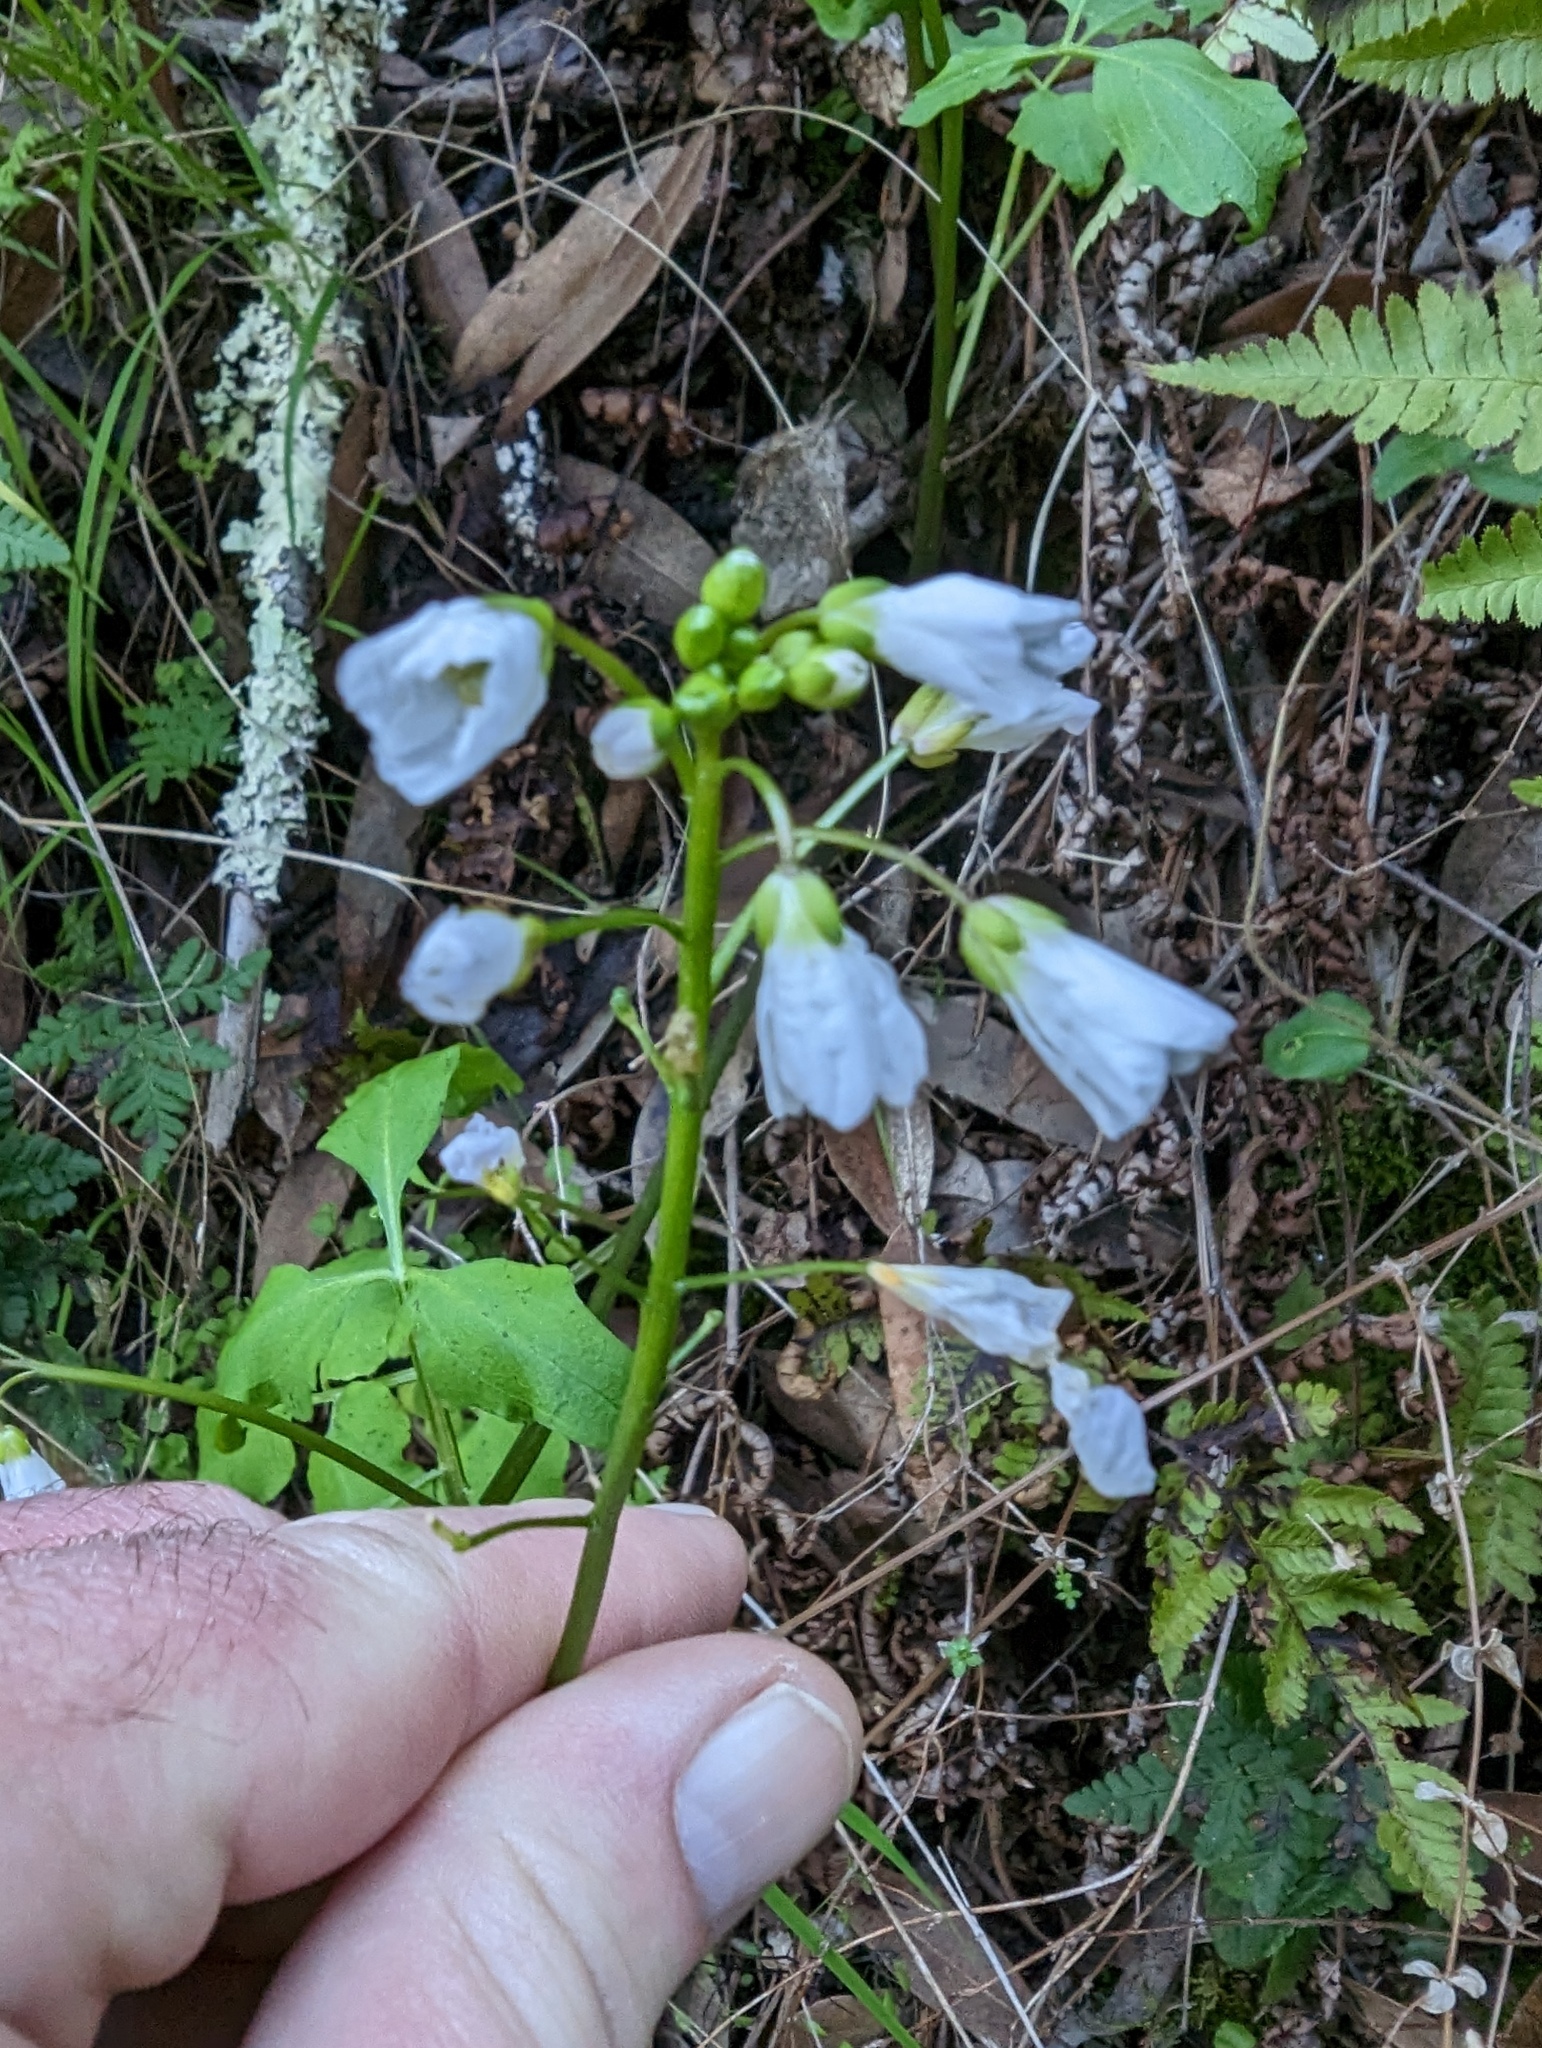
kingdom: Plantae
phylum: Tracheophyta
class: Magnoliopsida
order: Brassicales
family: Brassicaceae
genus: Cardamine
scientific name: Cardamine californica
